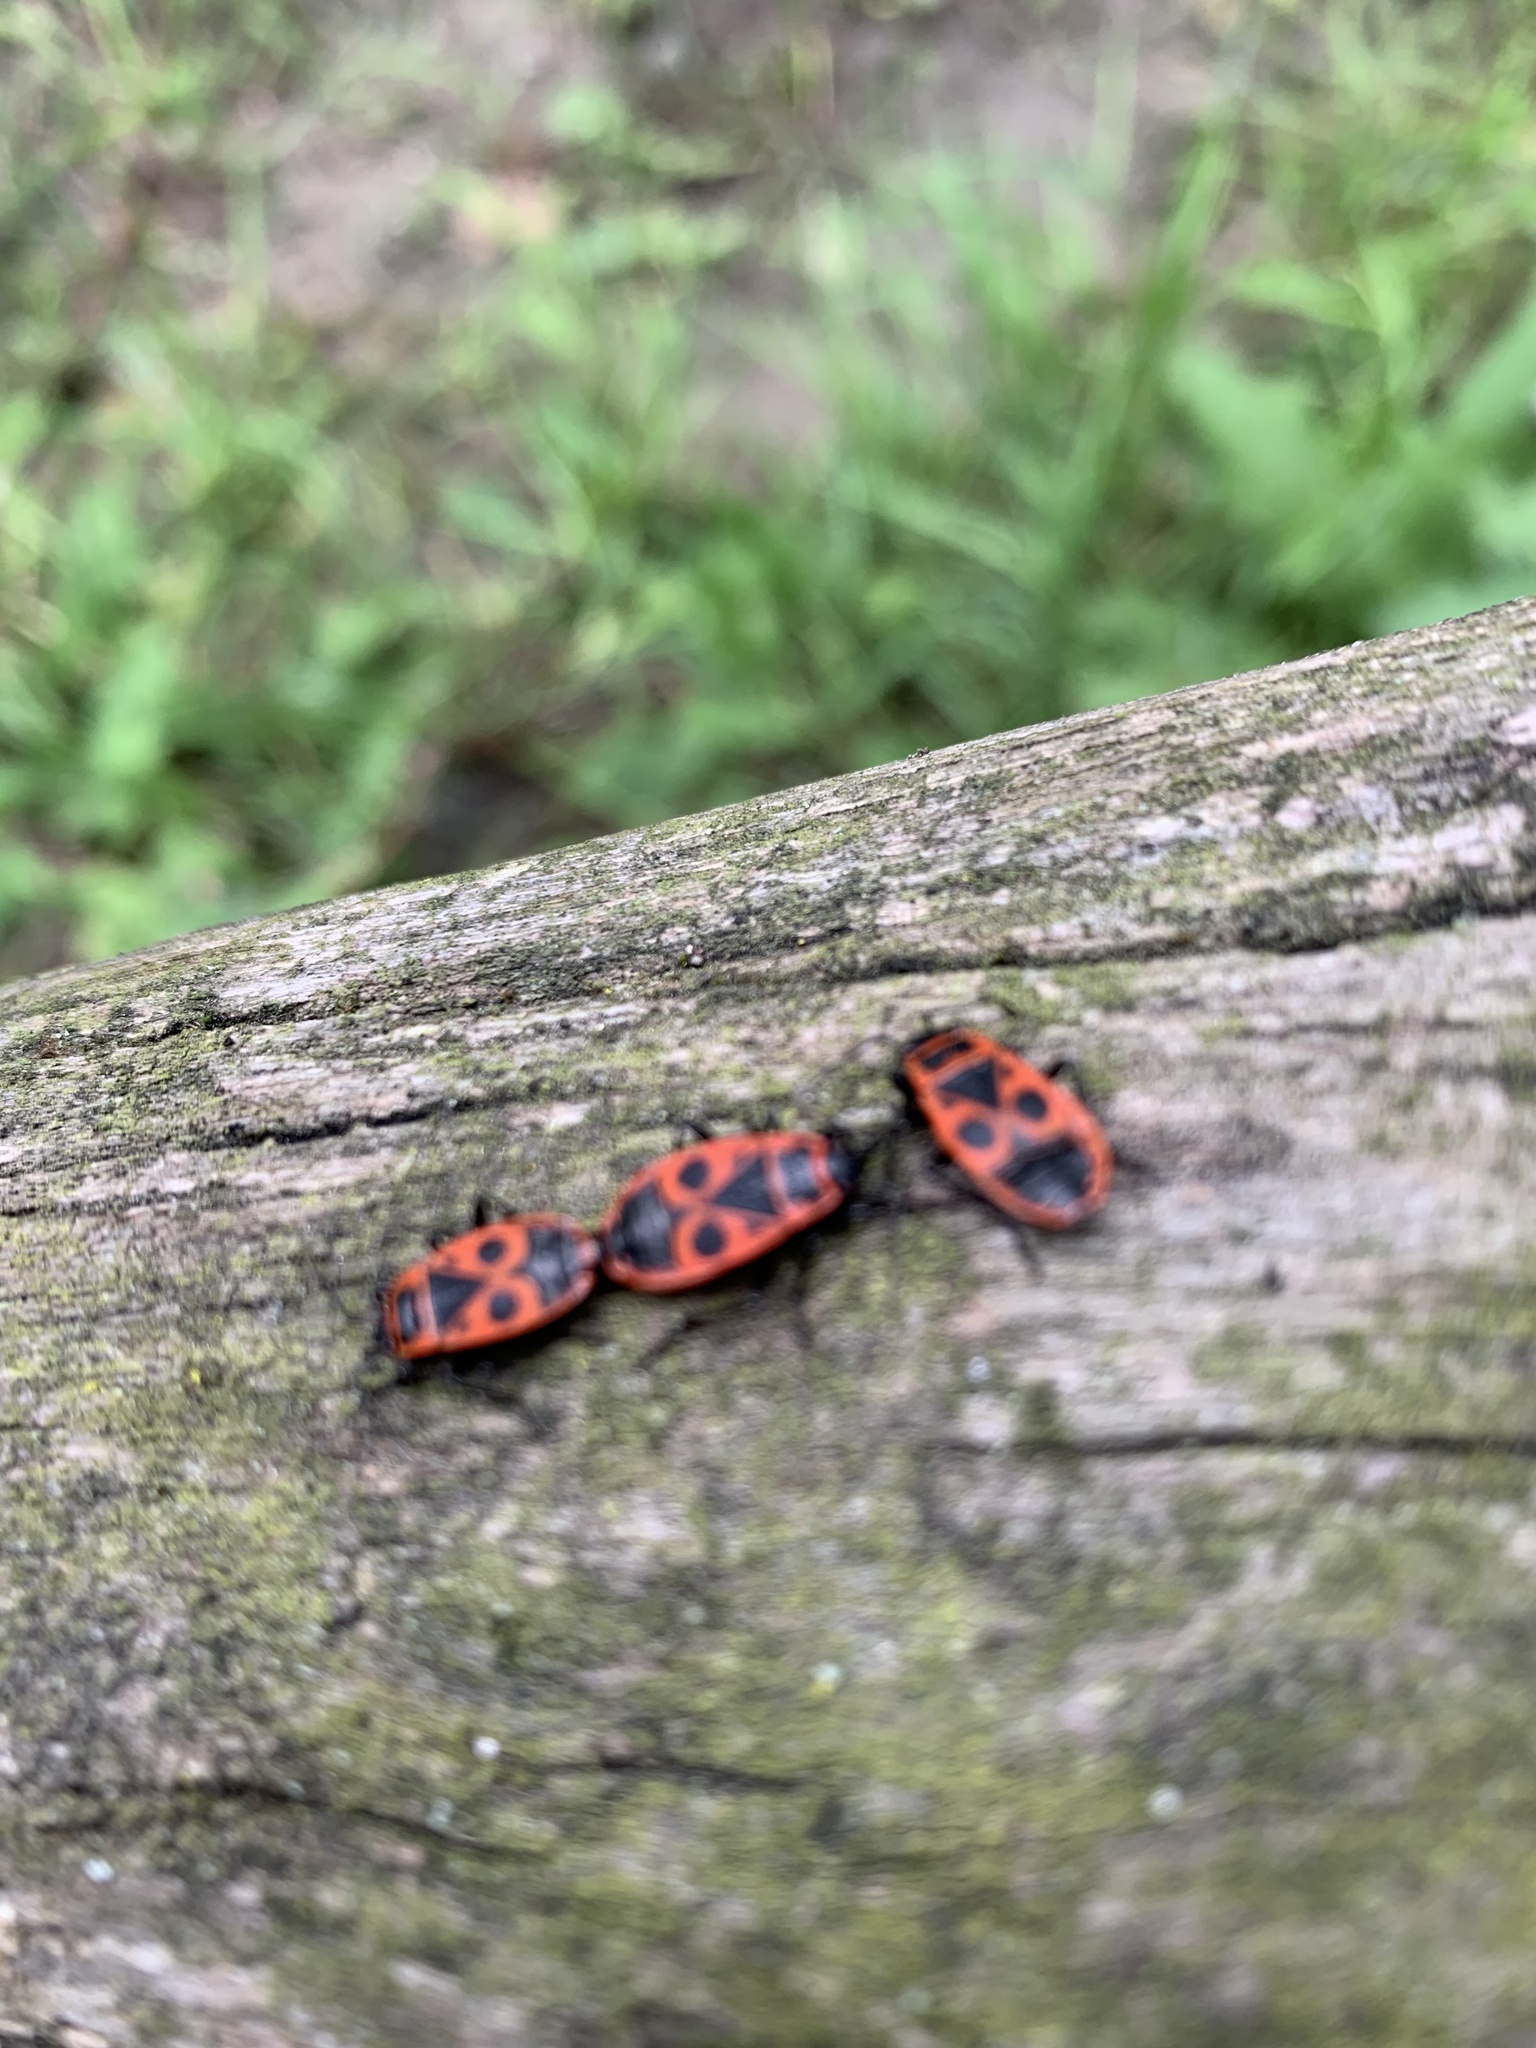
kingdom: Animalia
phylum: Arthropoda
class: Insecta
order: Hemiptera
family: Pyrrhocoridae
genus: Pyrrhocoris
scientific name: Pyrrhocoris apterus
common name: Firebug
